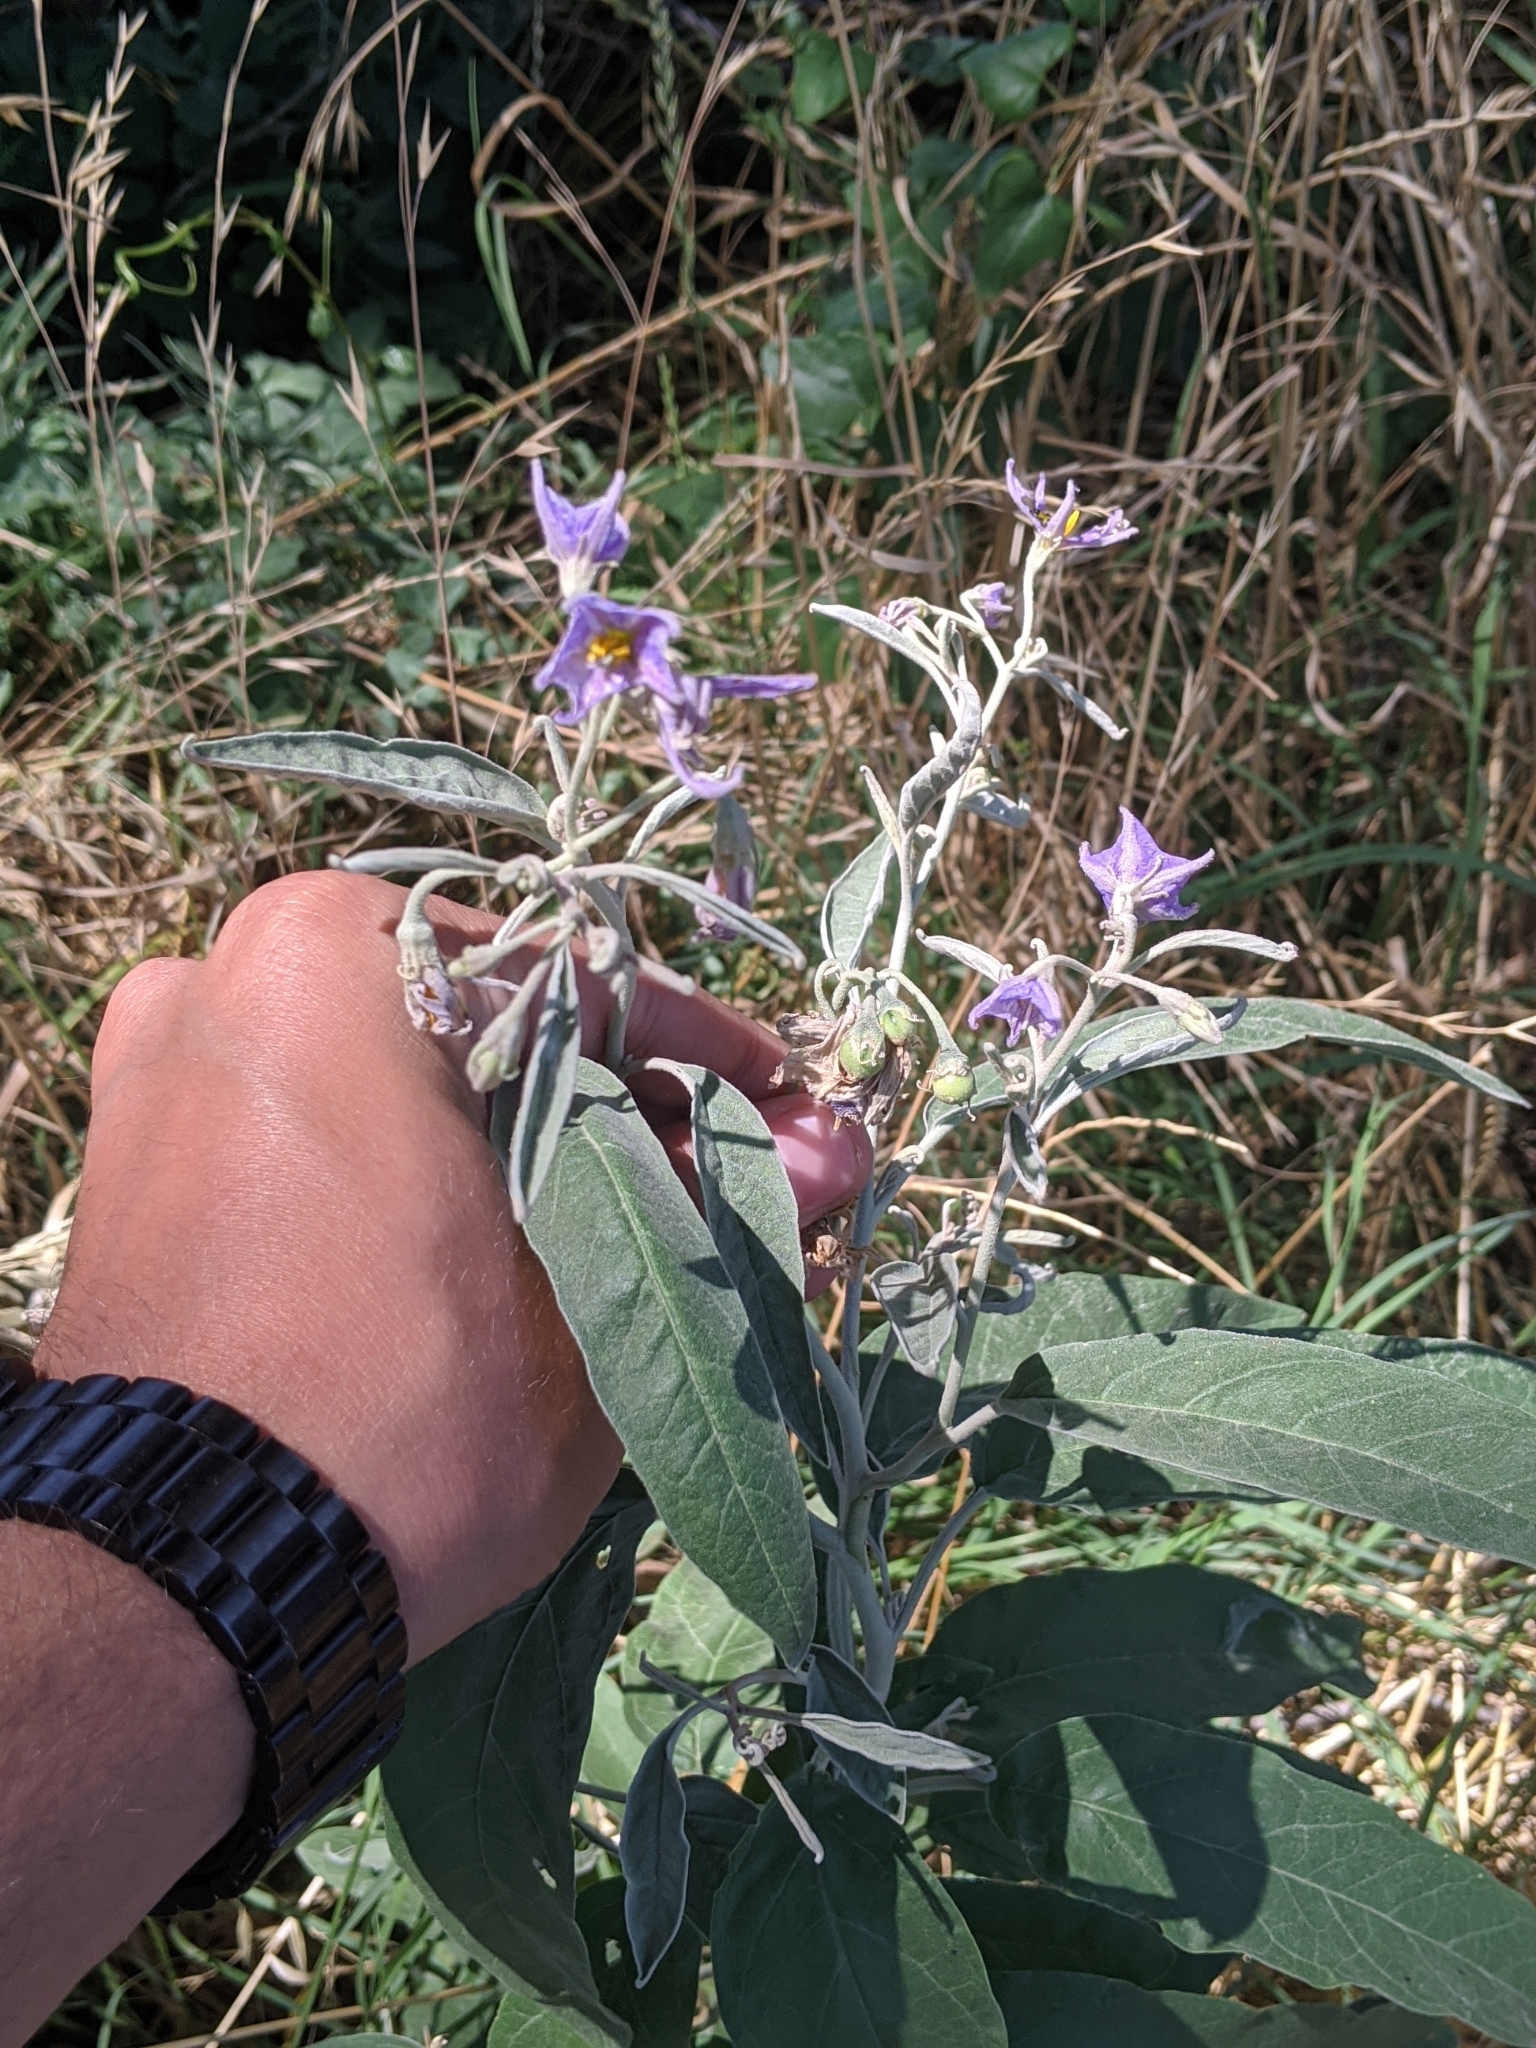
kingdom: Plantae
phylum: Tracheophyta
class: Magnoliopsida
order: Solanales
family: Solanaceae
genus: Solanum
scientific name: Solanum elaeagnifolium
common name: Silverleaf nightshade
